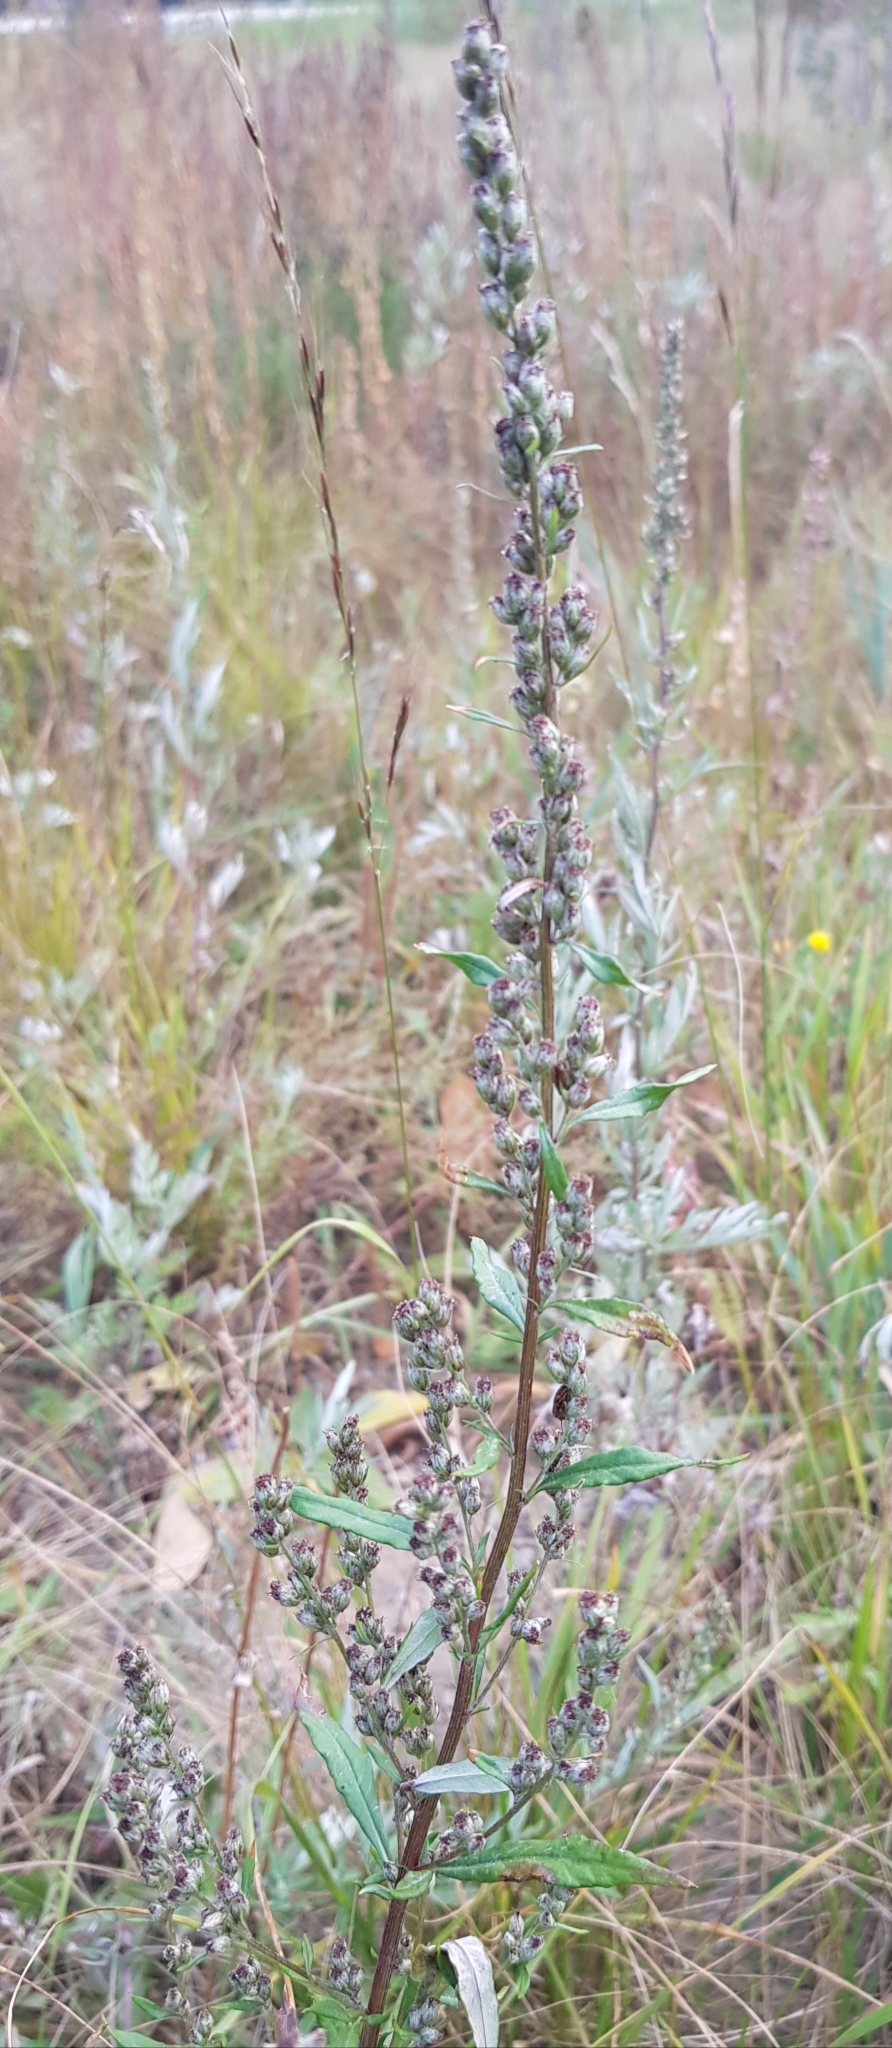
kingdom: Plantae
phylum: Tracheophyta
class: Magnoliopsida
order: Asterales
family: Asteraceae
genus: Artemisia
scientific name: Artemisia vulgaris
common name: Mugwort
